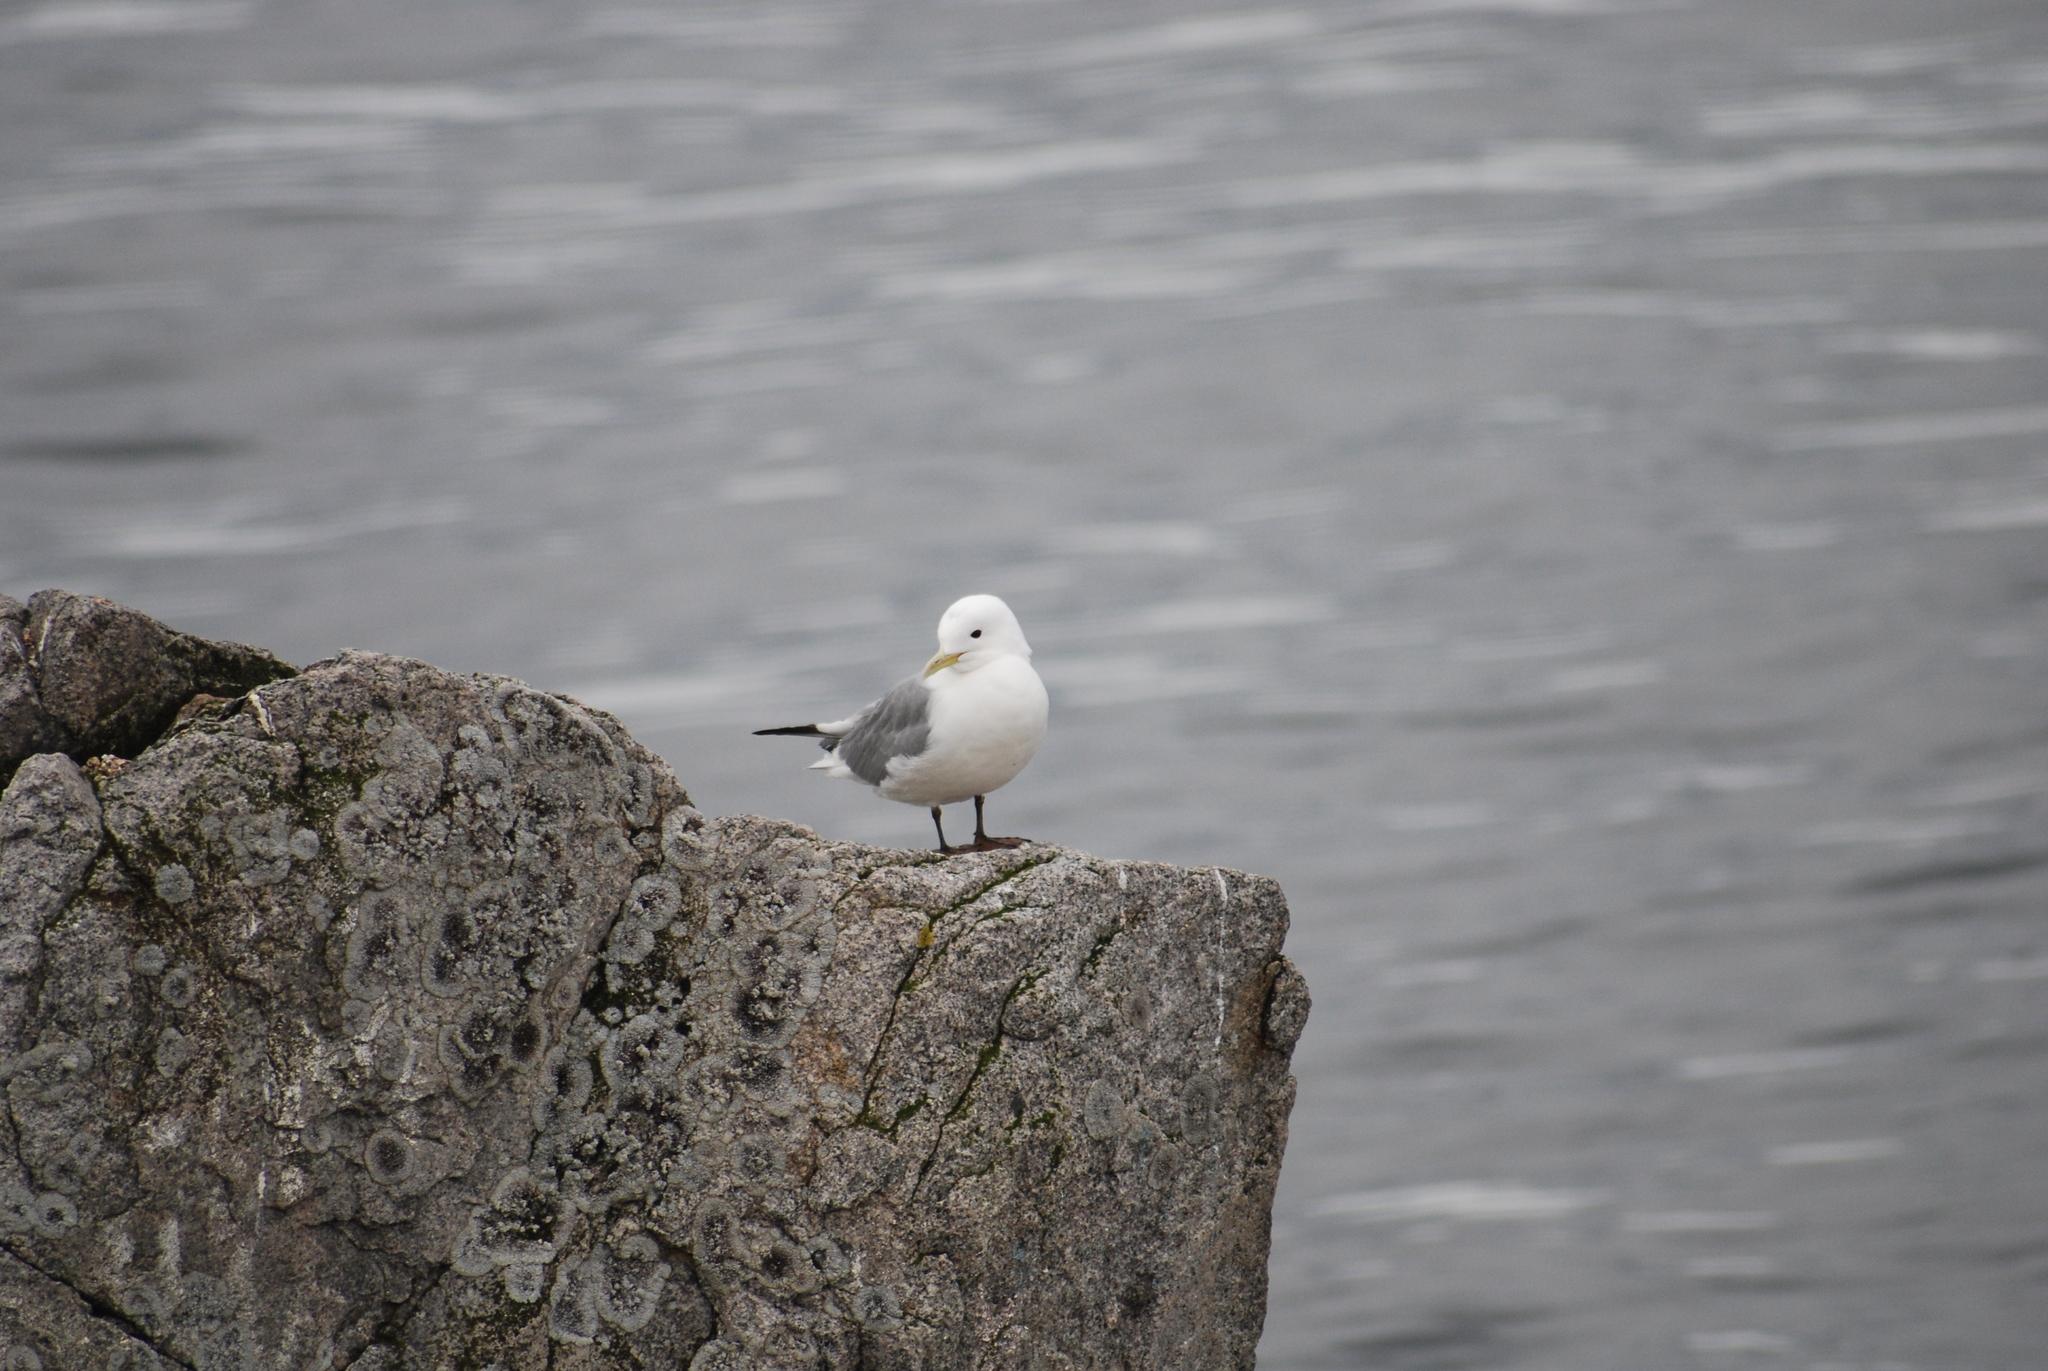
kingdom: Animalia
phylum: Chordata
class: Aves
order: Charadriiformes
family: Laridae
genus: Rissa
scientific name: Rissa tridactyla
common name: Black-legged kittiwake
